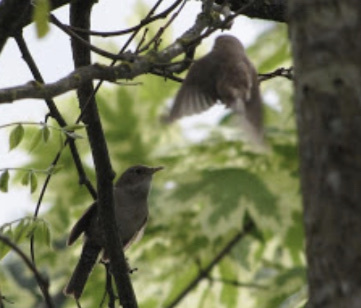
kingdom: Animalia
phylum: Chordata
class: Aves
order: Passeriformes
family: Troglodytidae
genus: Troglodytes
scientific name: Troglodytes aedon
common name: House wren
